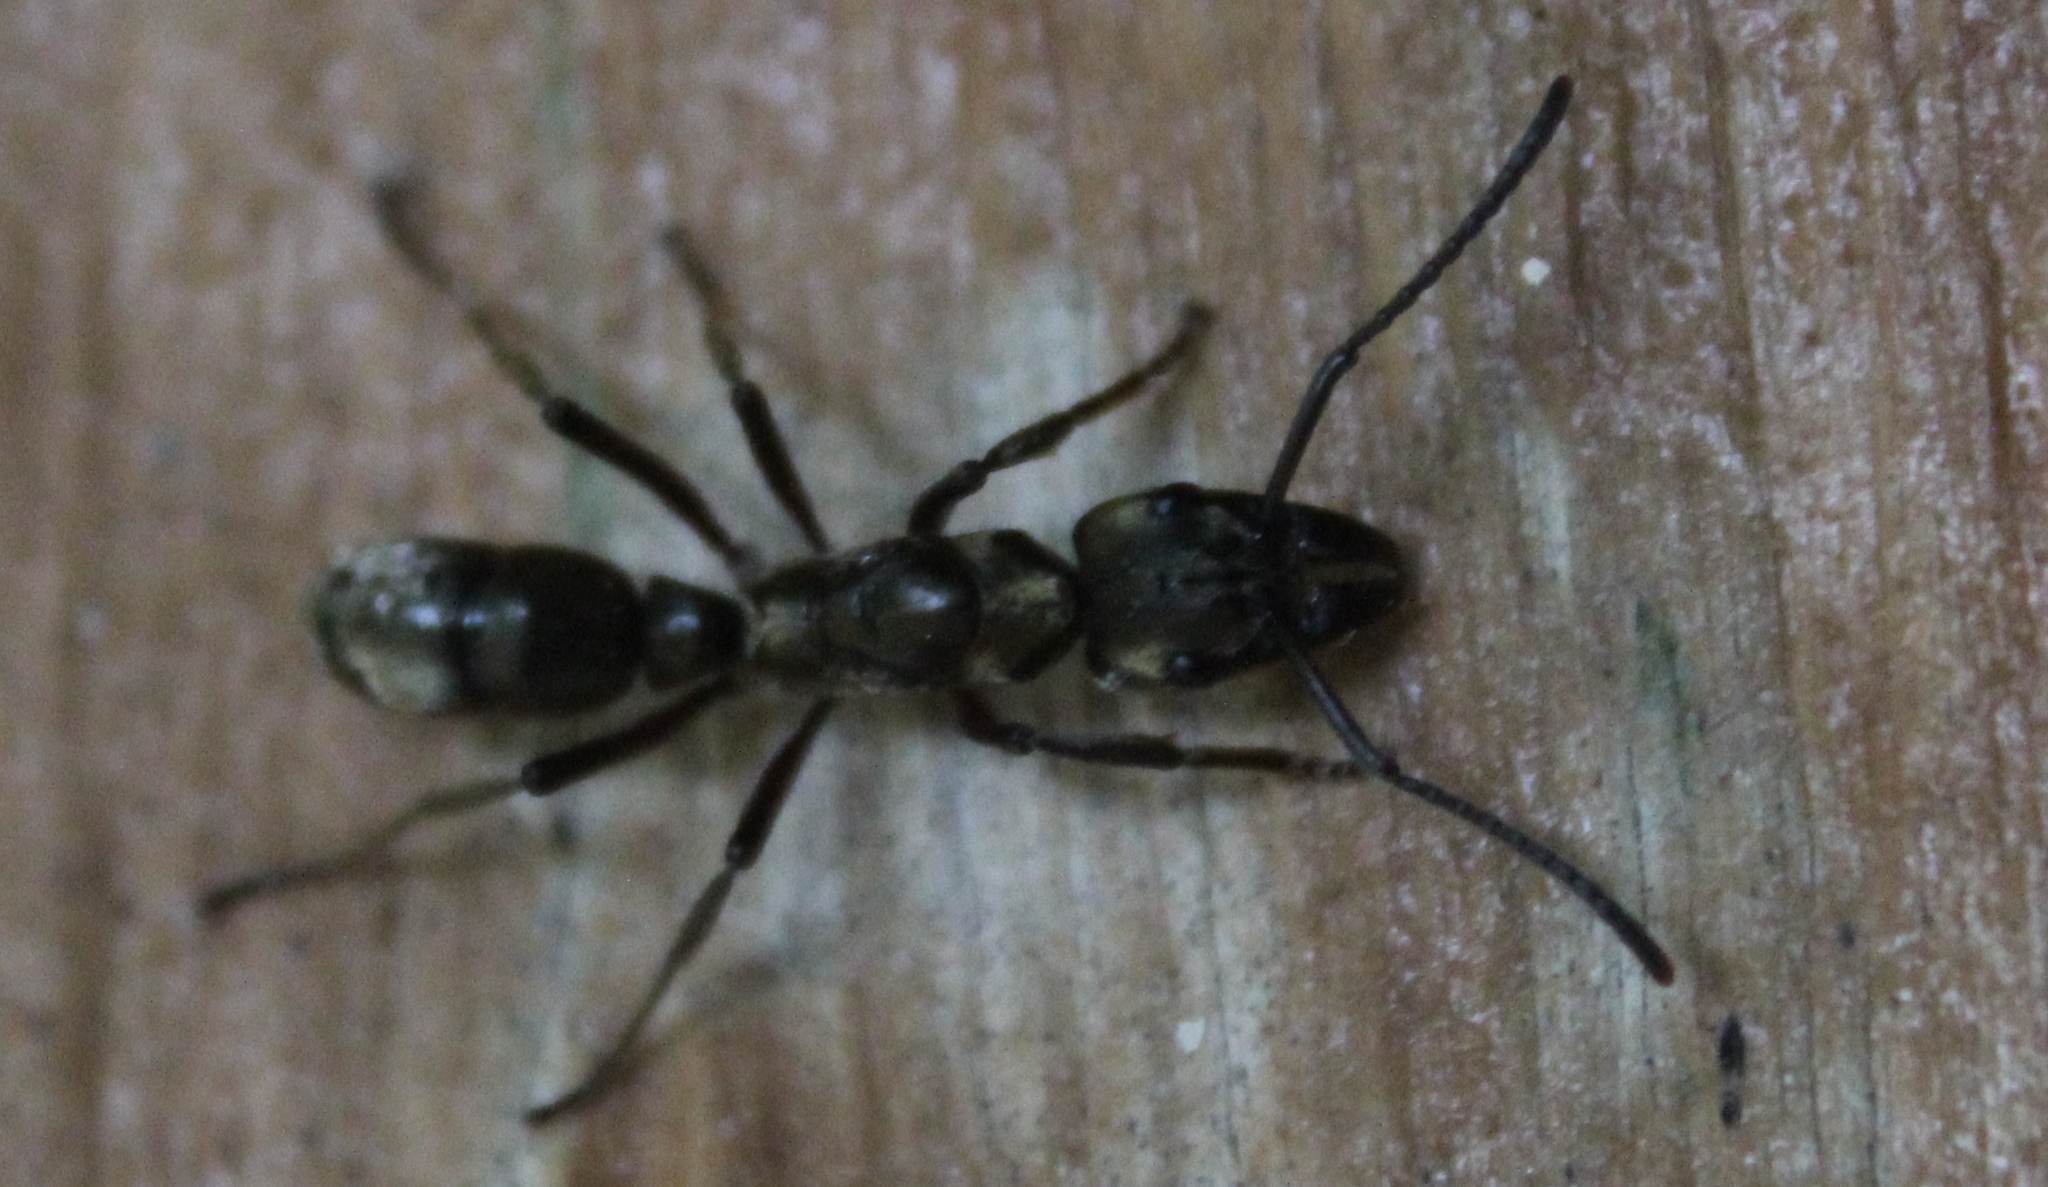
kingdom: Animalia
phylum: Arthropoda
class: Insecta
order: Hymenoptera
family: Formicidae
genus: Pachycondyla
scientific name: Pachycondyla villosa
